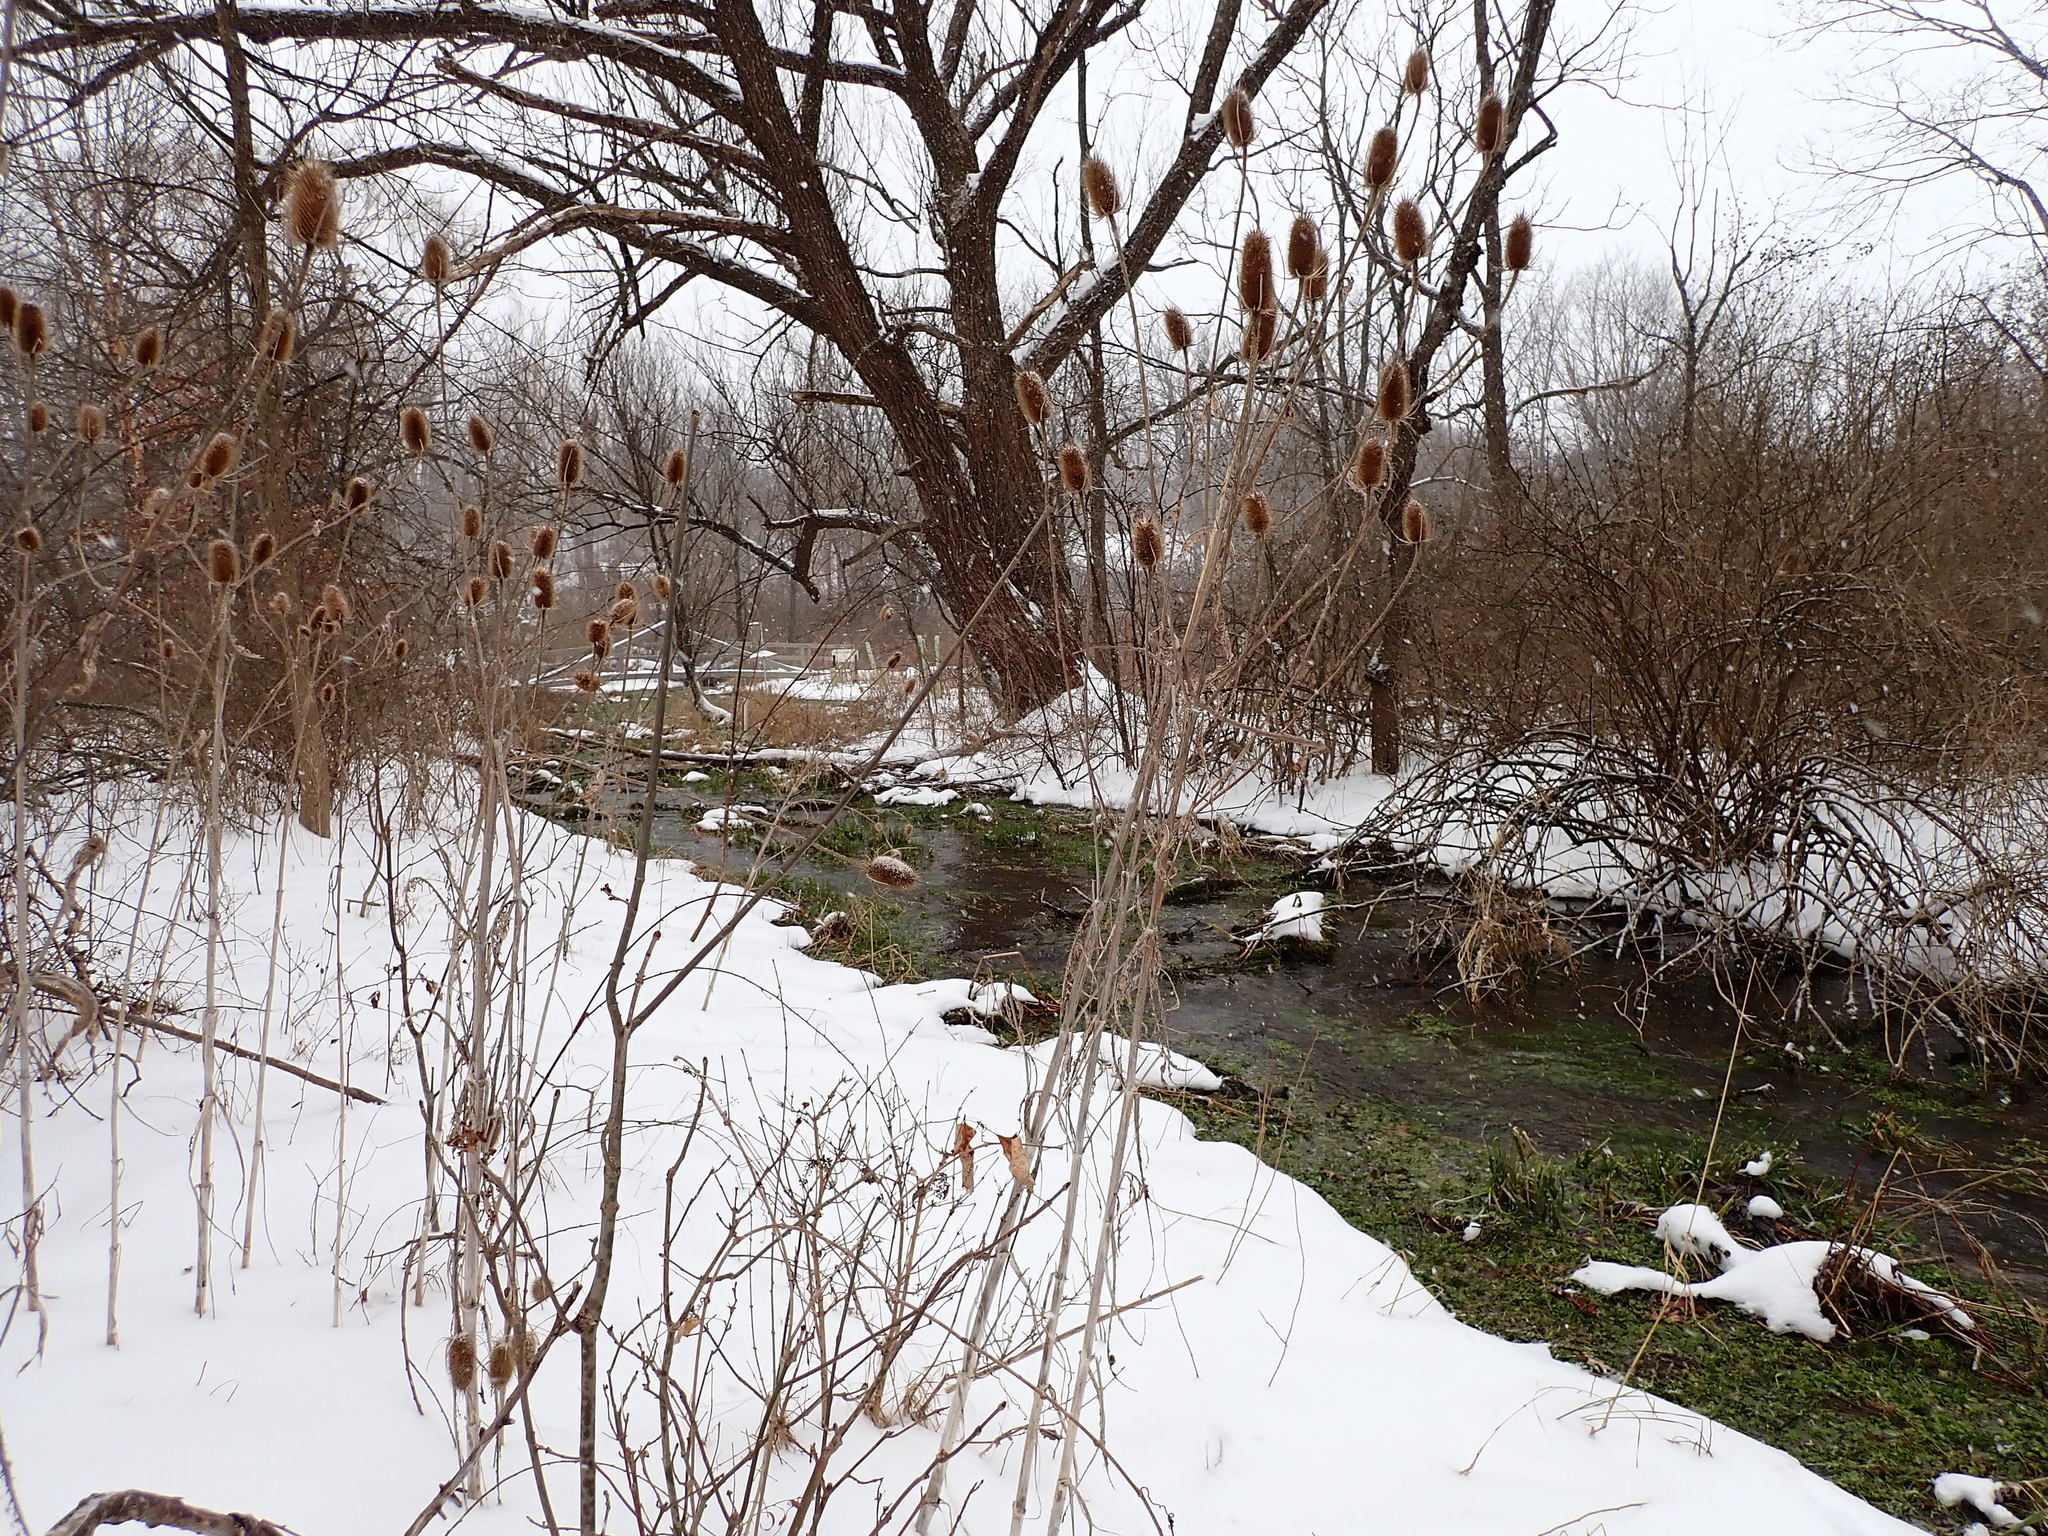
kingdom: Plantae
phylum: Tracheophyta
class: Magnoliopsida
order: Dipsacales
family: Caprifoliaceae
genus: Dipsacus
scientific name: Dipsacus fullonum
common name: Teasel
